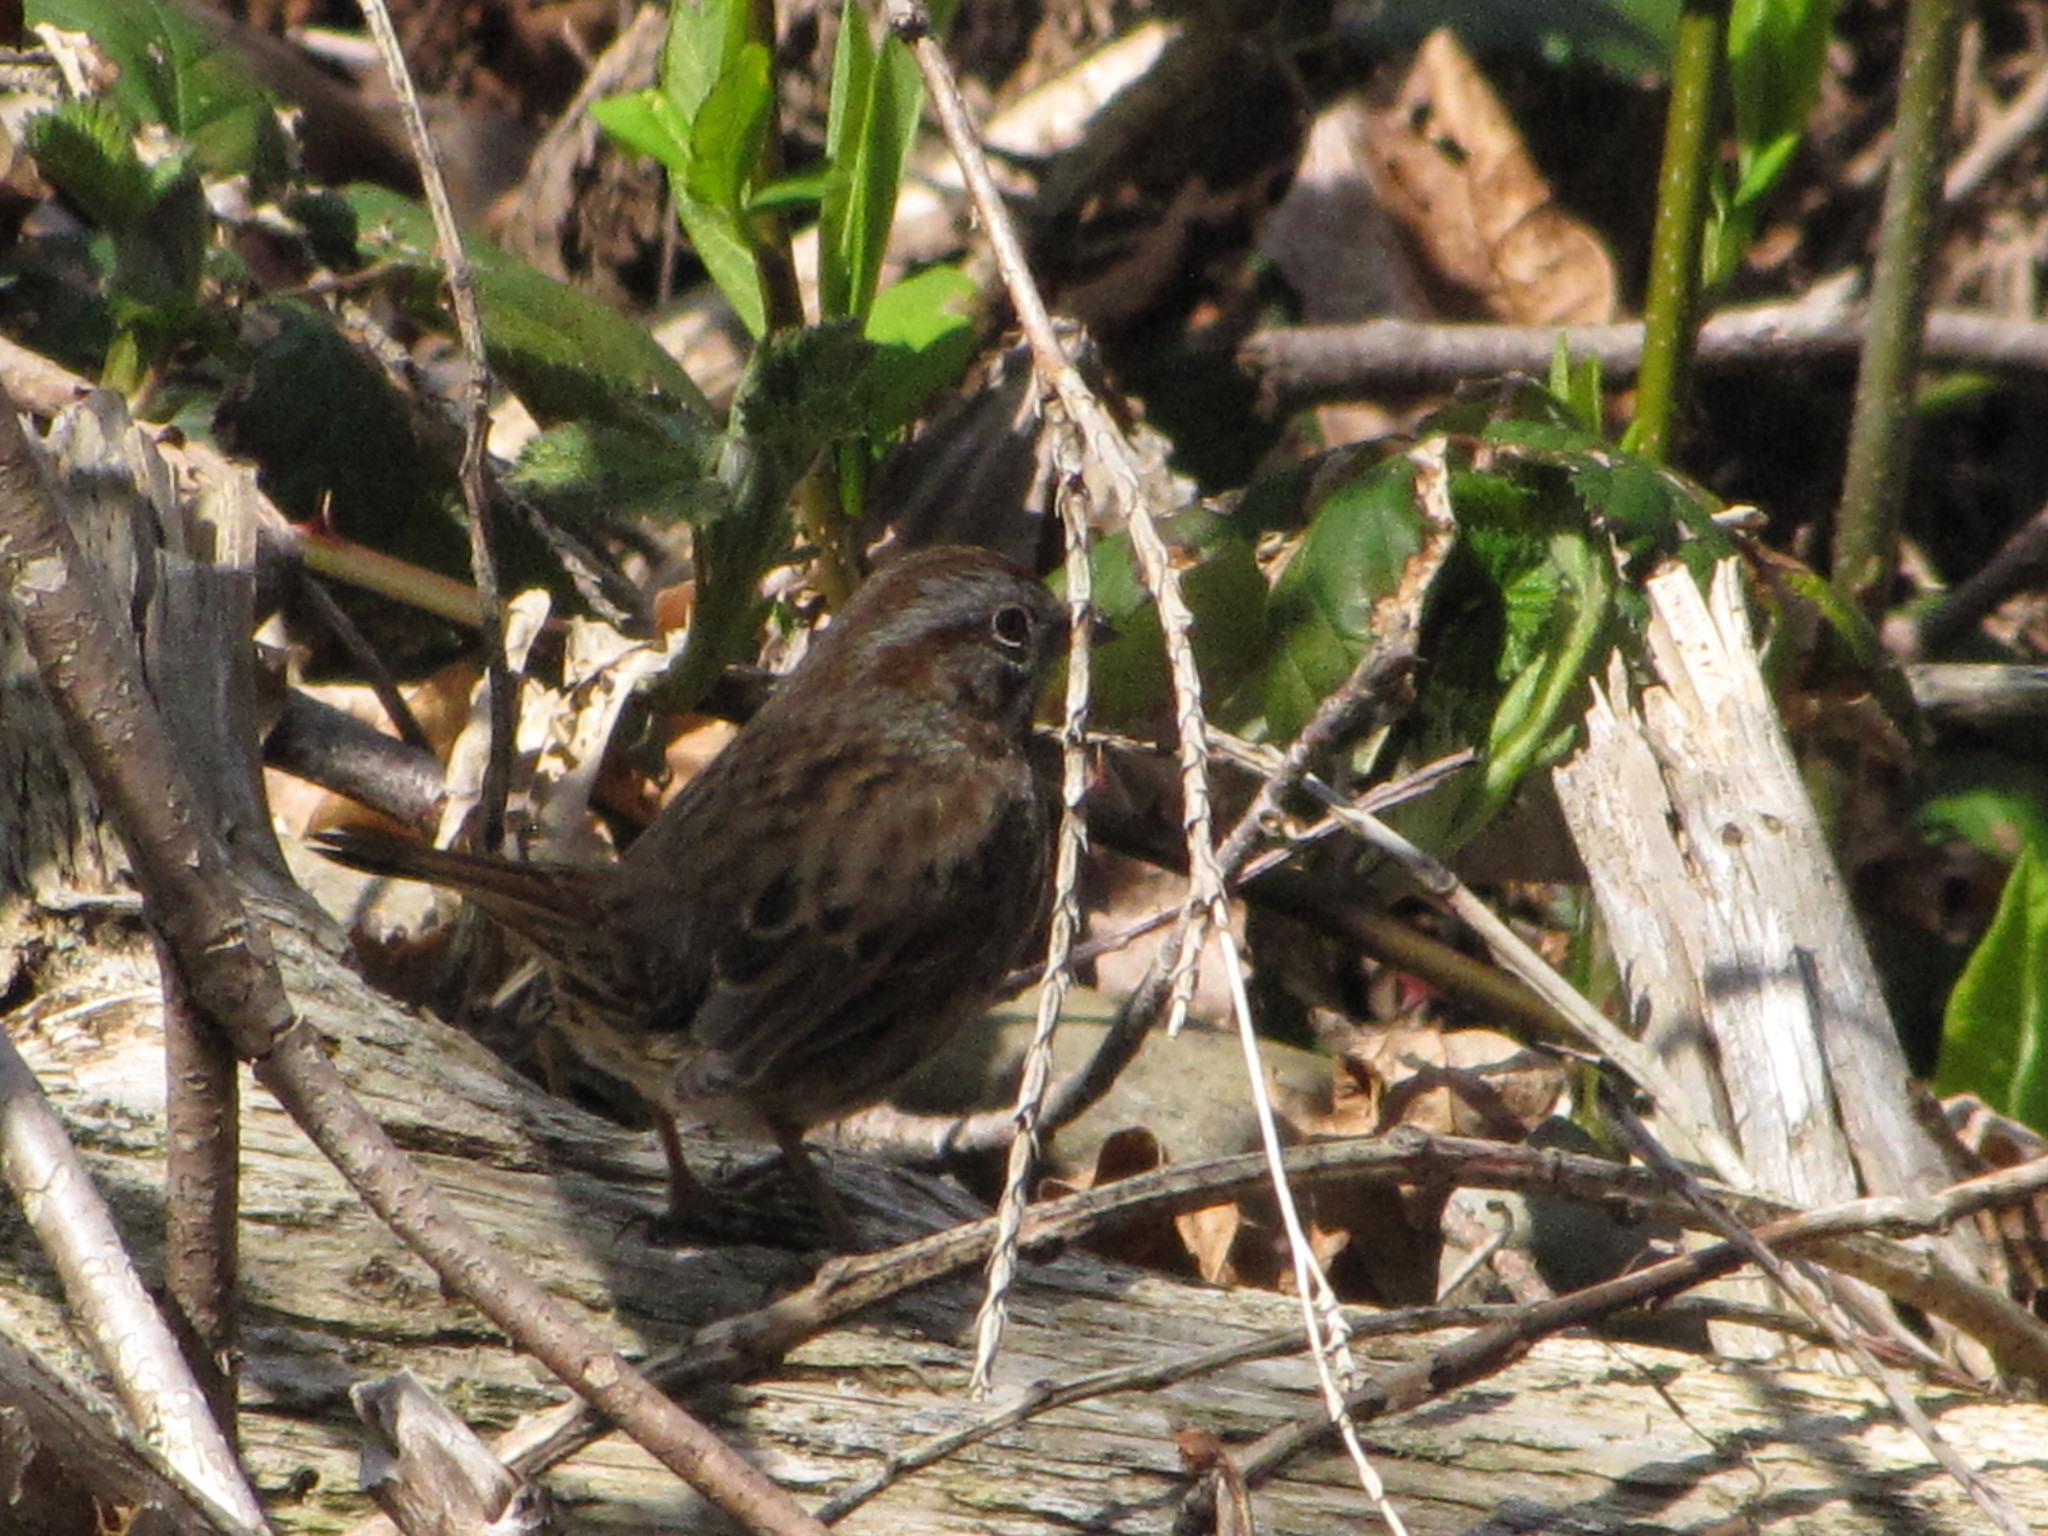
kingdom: Animalia
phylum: Chordata
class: Aves
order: Passeriformes
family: Passerellidae
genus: Melospiza
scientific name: Melospiza melodia
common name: Song sparrow
